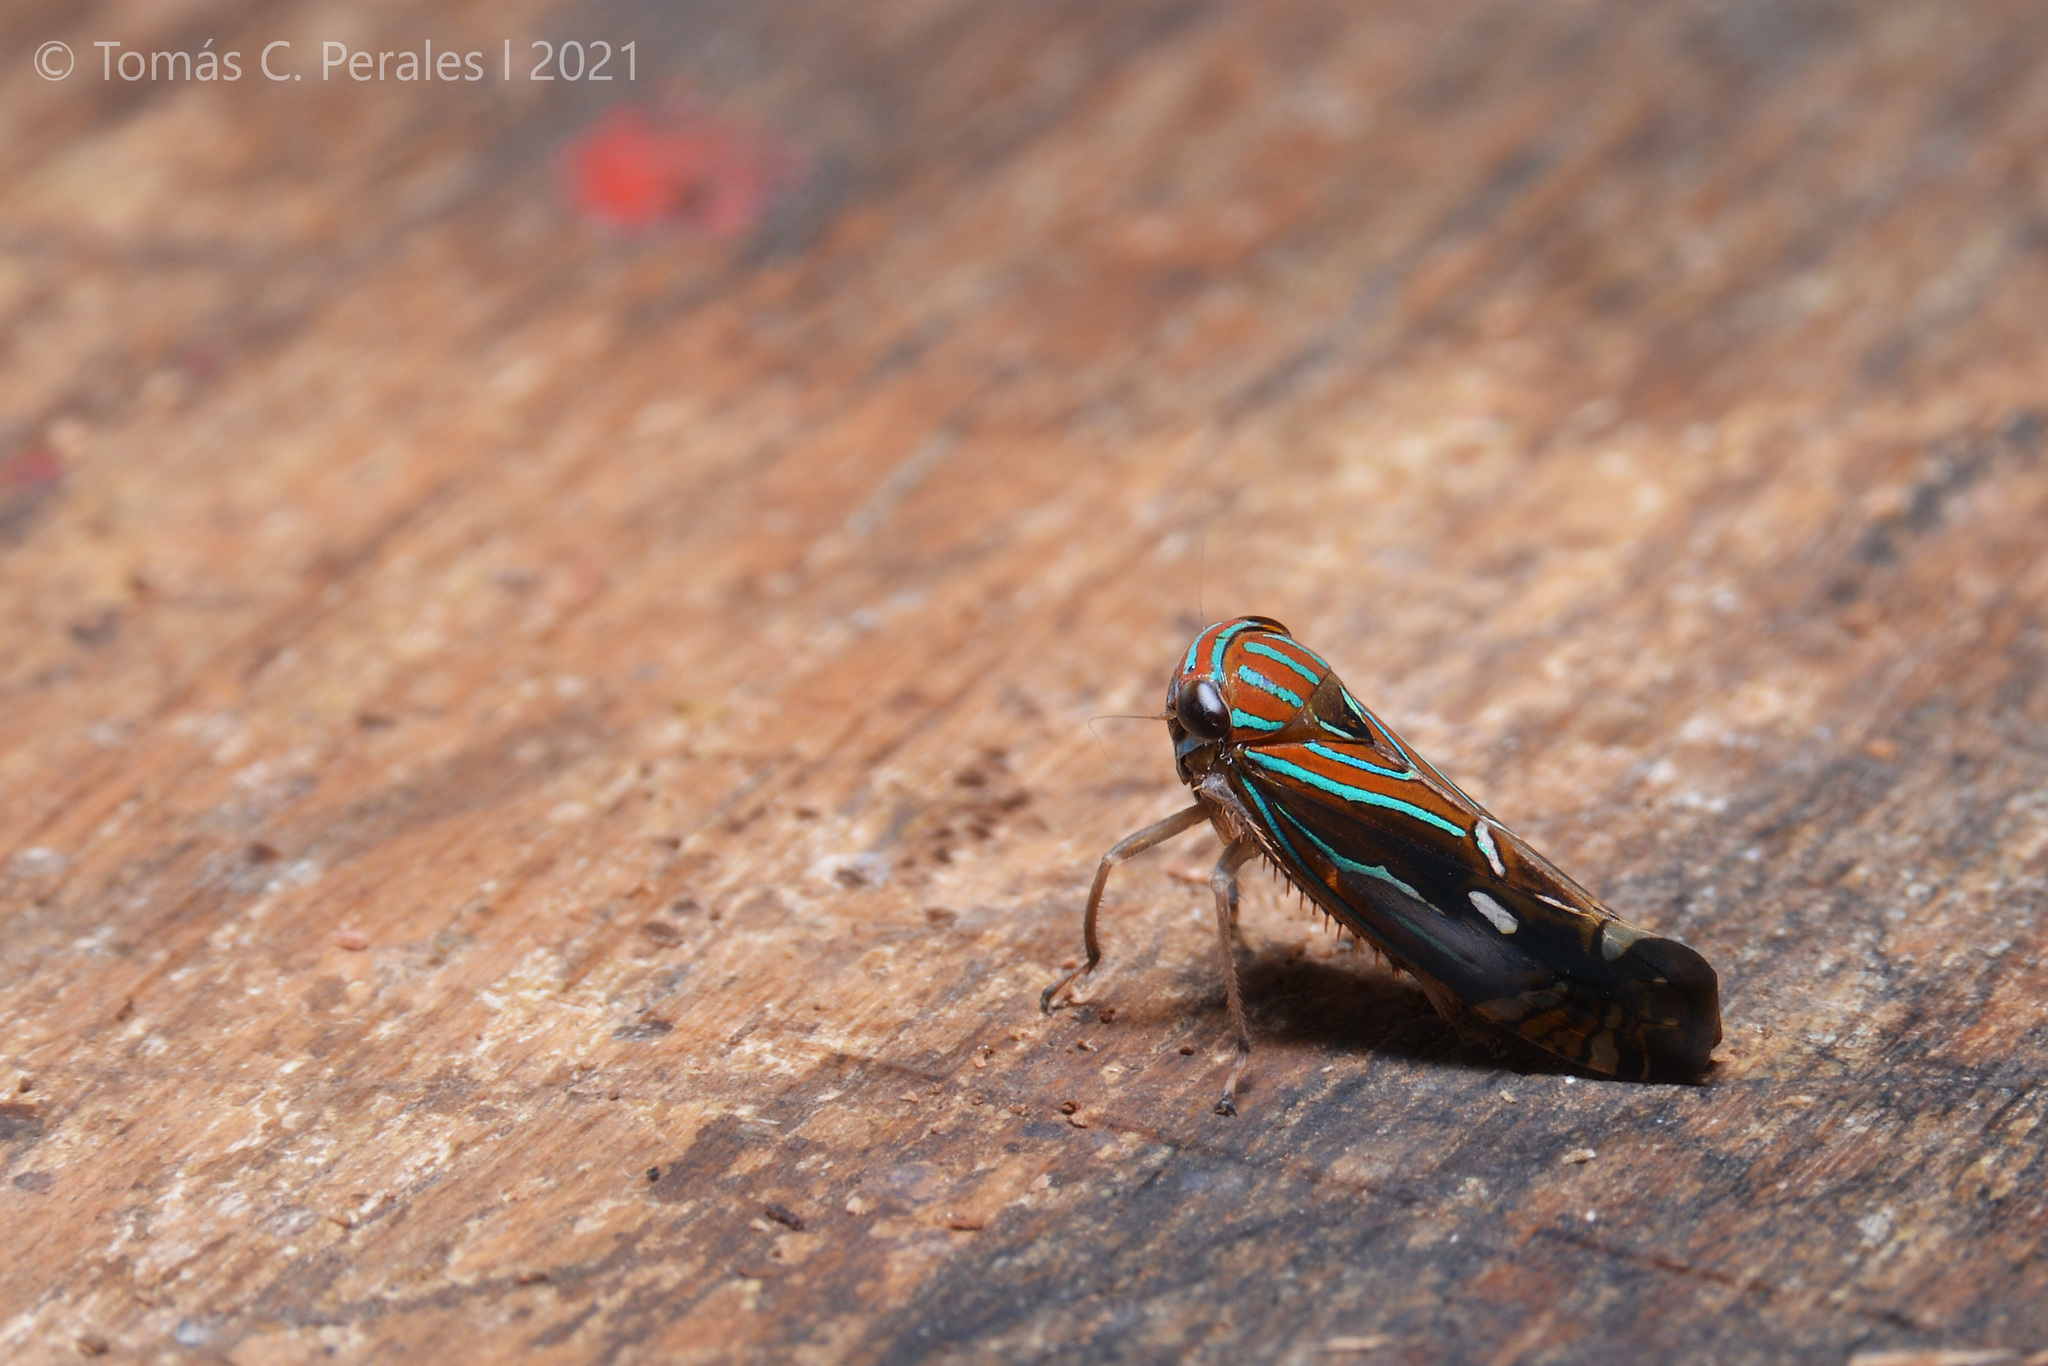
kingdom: Animalia
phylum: Arthropoda
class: Insecta
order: Hemiptera
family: Cicadellidae
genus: Calliscarta
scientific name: Calliscarta fasciata
